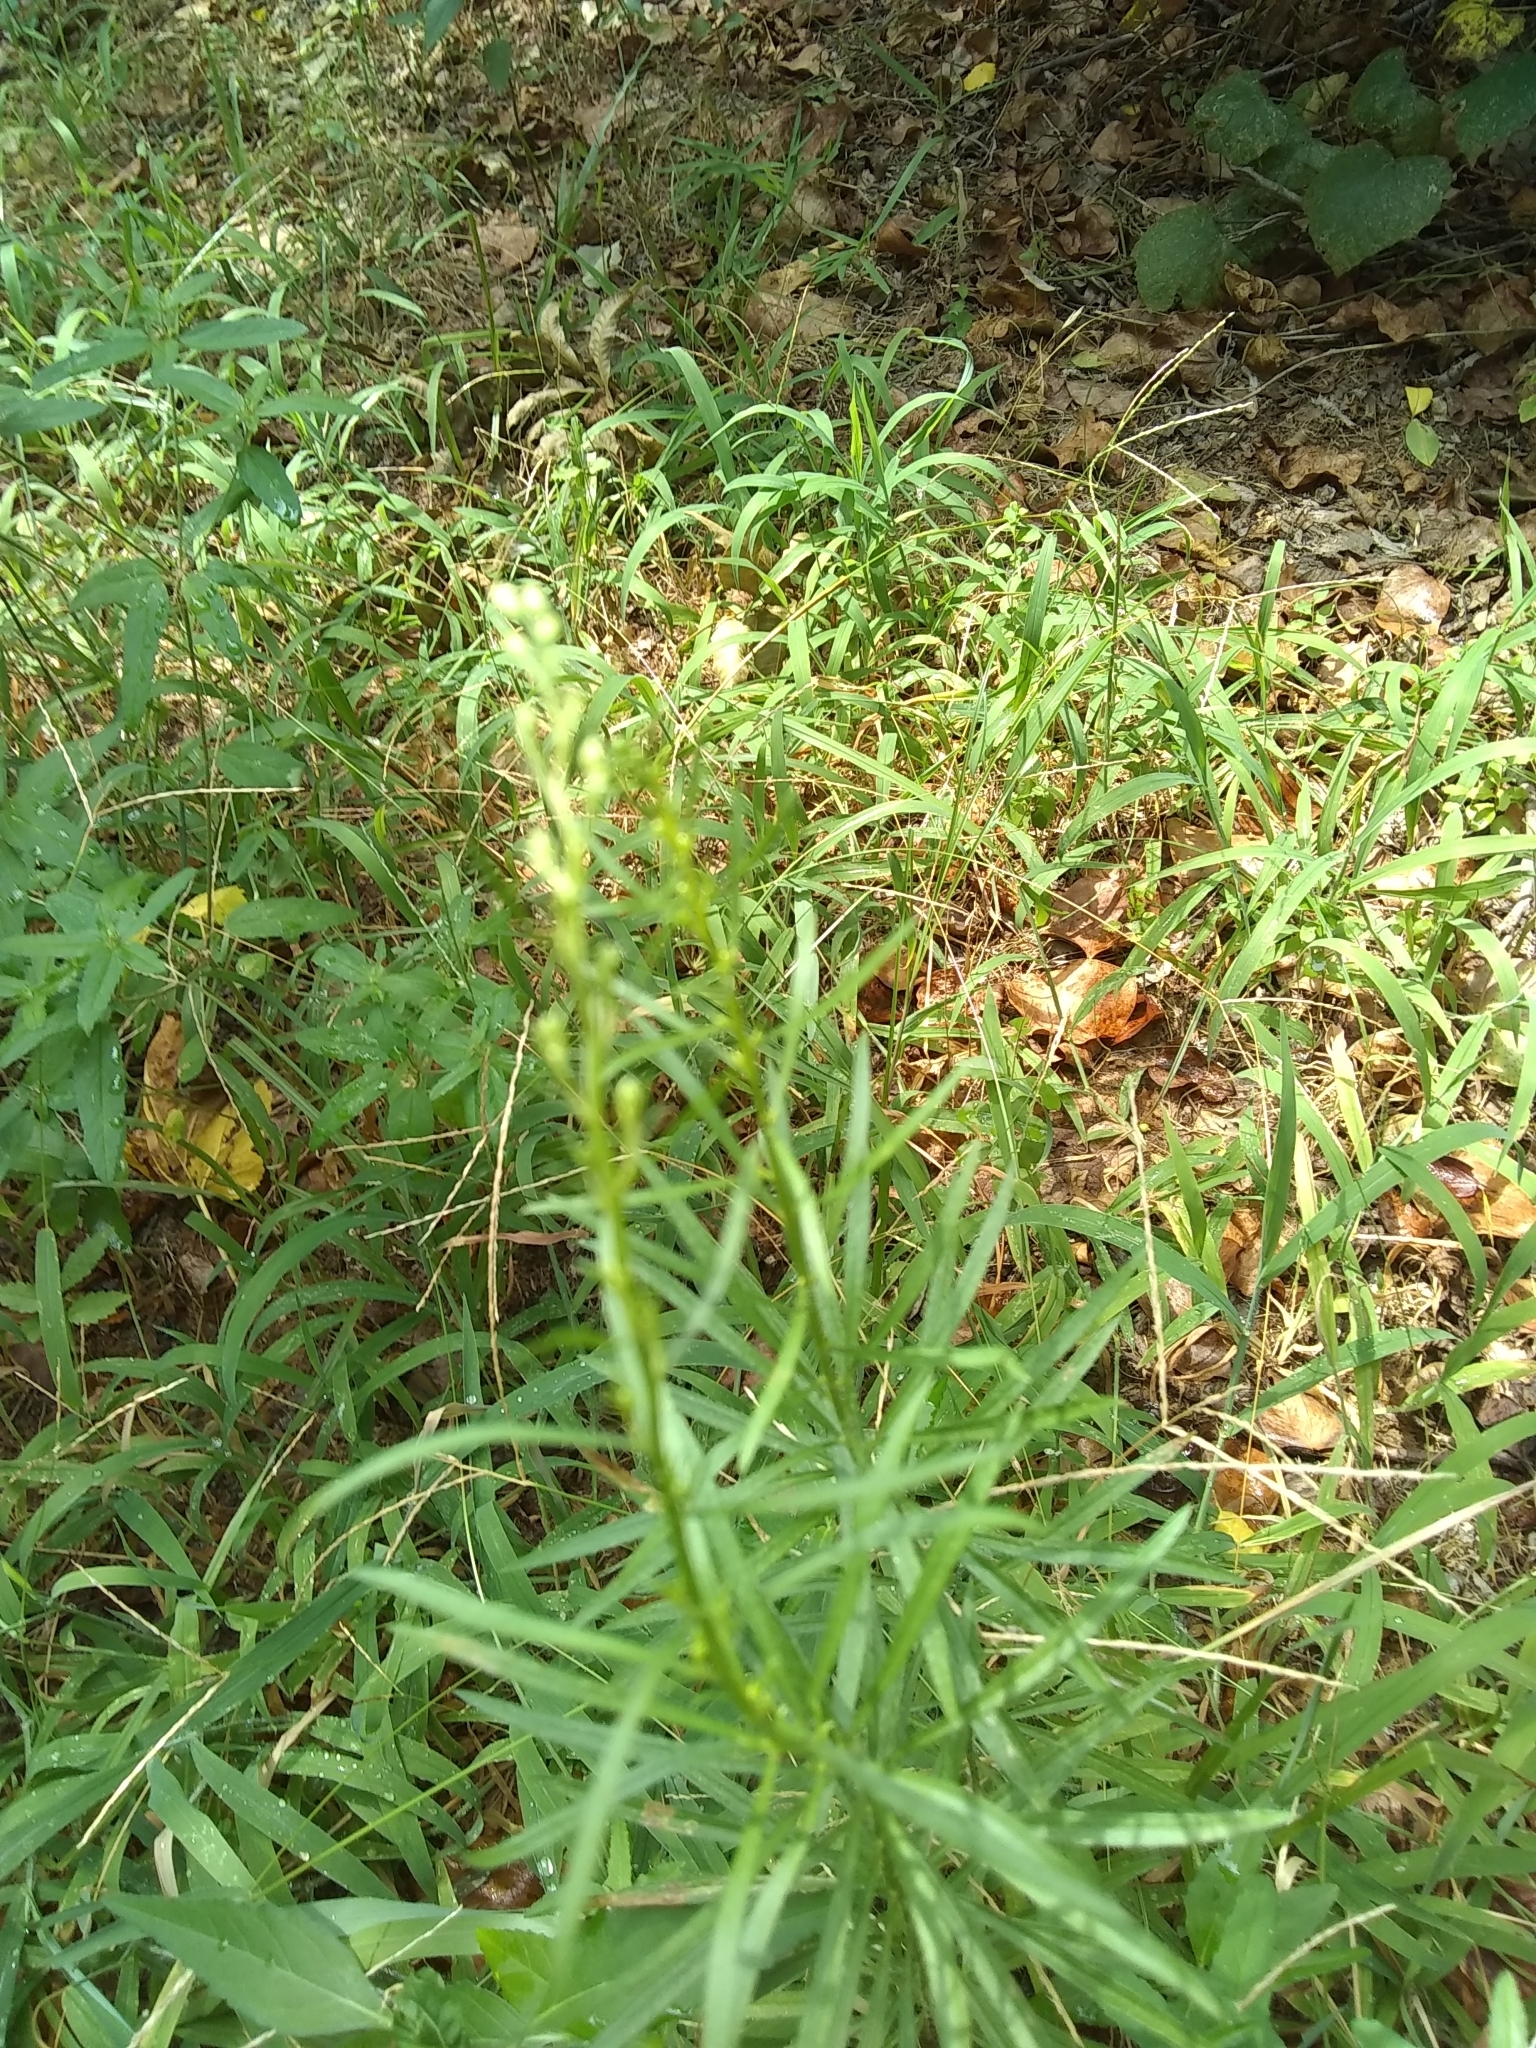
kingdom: Plantae
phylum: Tracheophyta
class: Magnoliopsida
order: Asterales
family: Asteraceae
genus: Erigeron
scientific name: Erigeron canadensis
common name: Canadian fleabane
